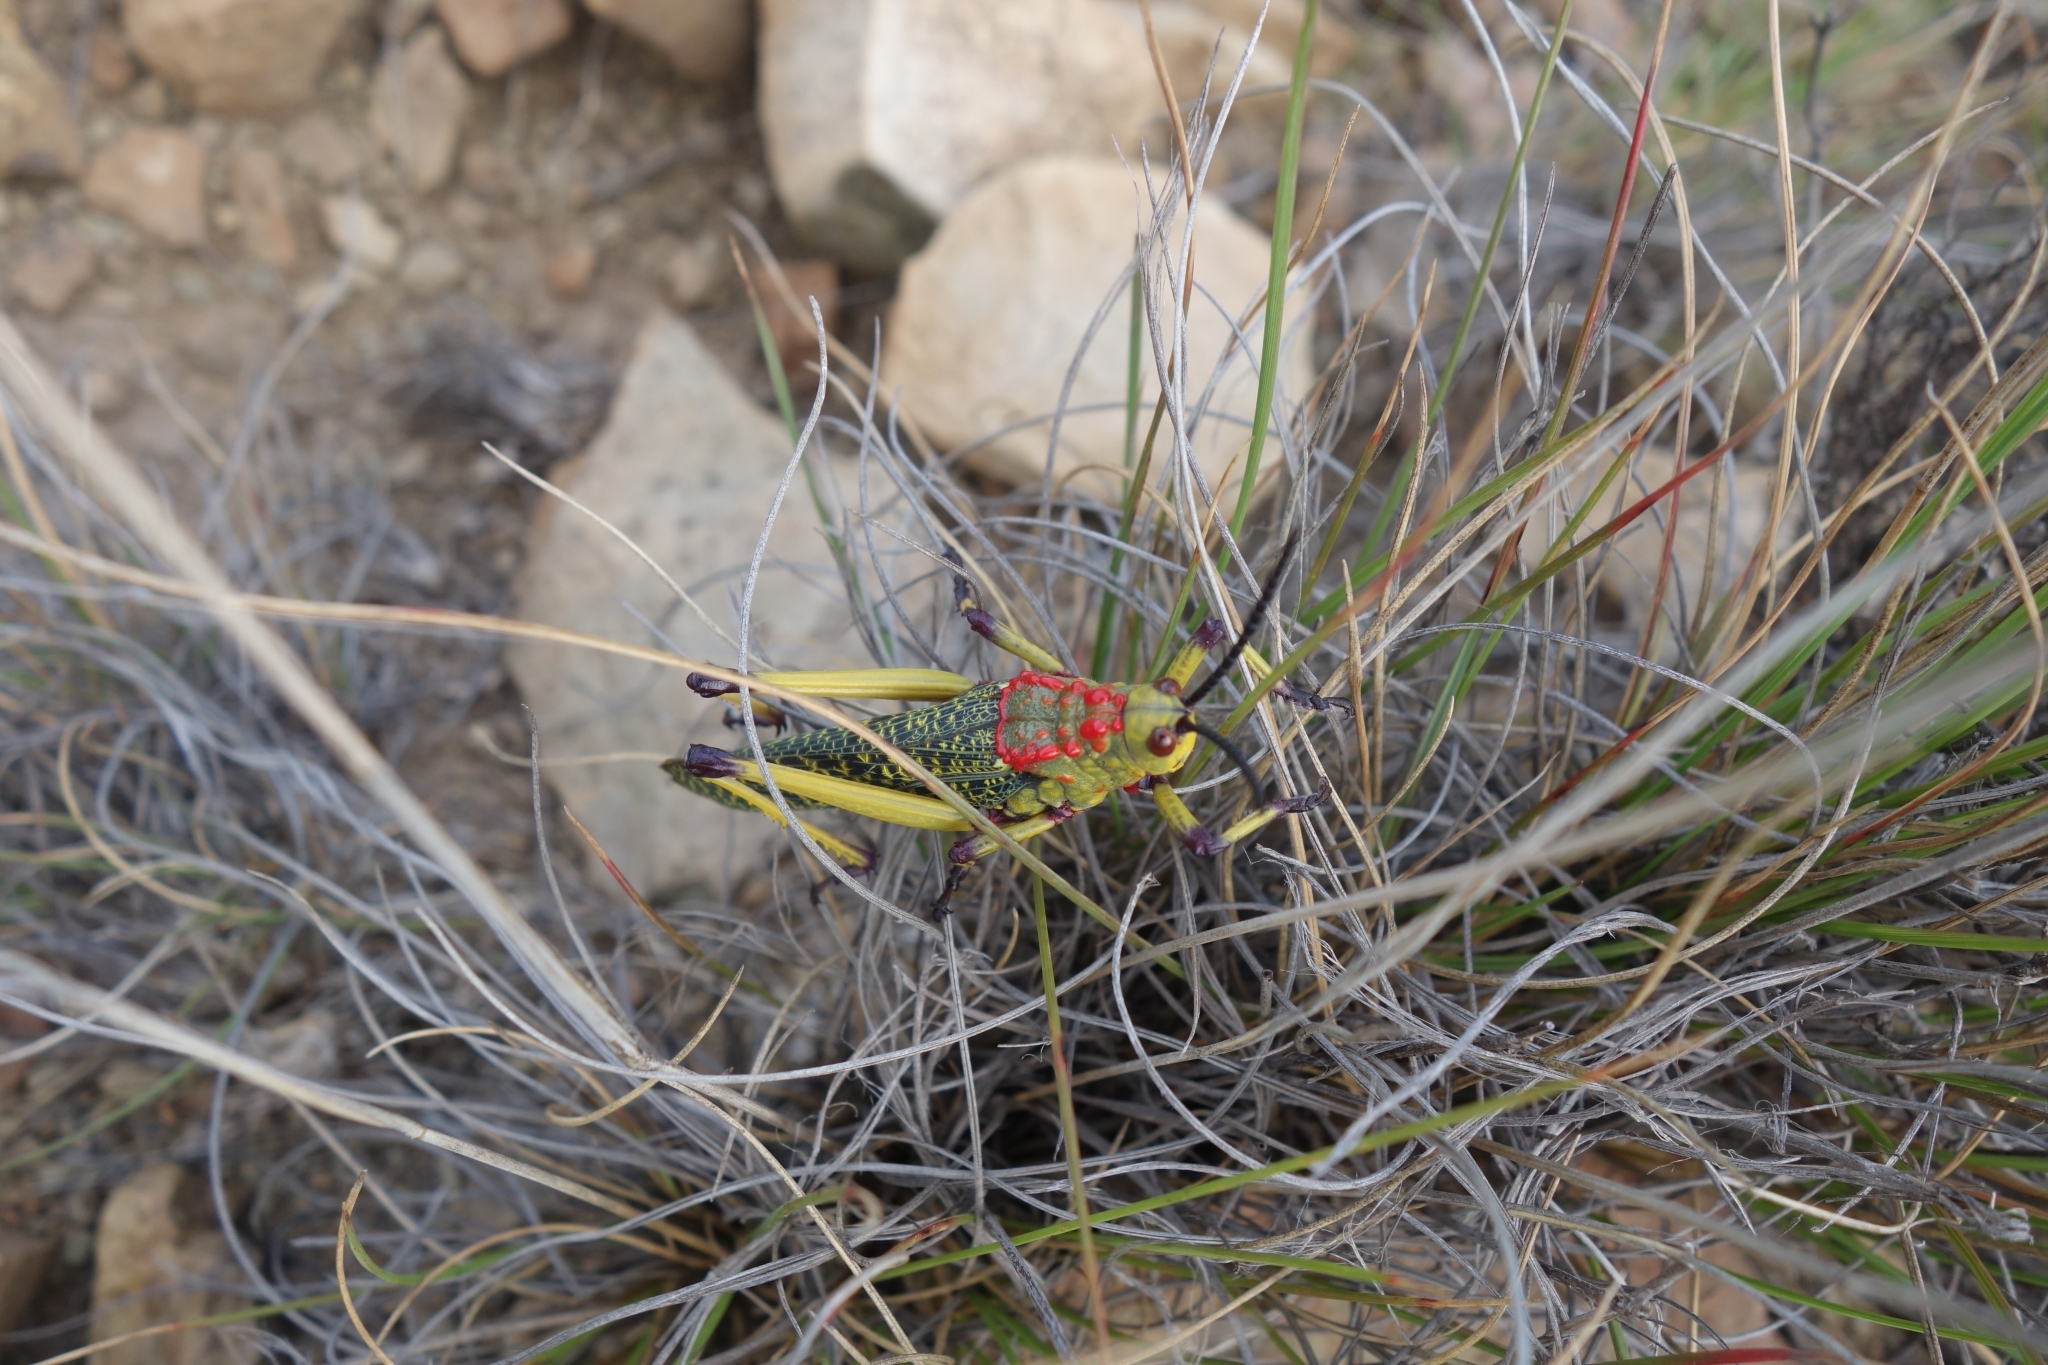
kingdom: Animalia
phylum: Arthropoda
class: Insecta
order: Orthoptera
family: Pyrgomorphidae
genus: Phymateus
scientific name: Phymateus karschi
